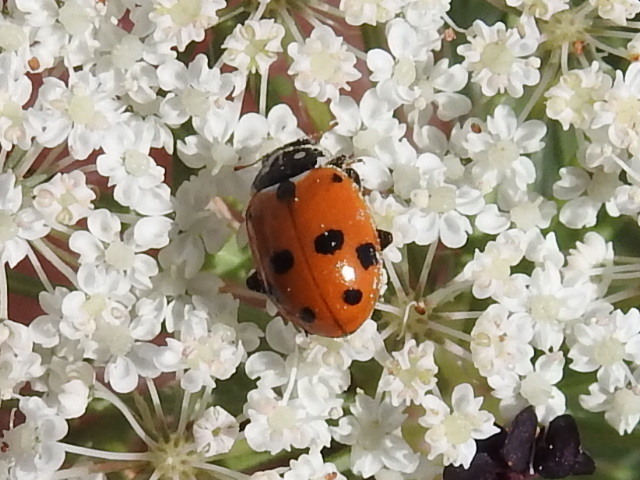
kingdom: Animalia
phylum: Arthropoda
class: Insecta
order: Coleoptera
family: Coccinellidae
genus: Hippodamia
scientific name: Hippodamia variegata
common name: Ladybird beetle
